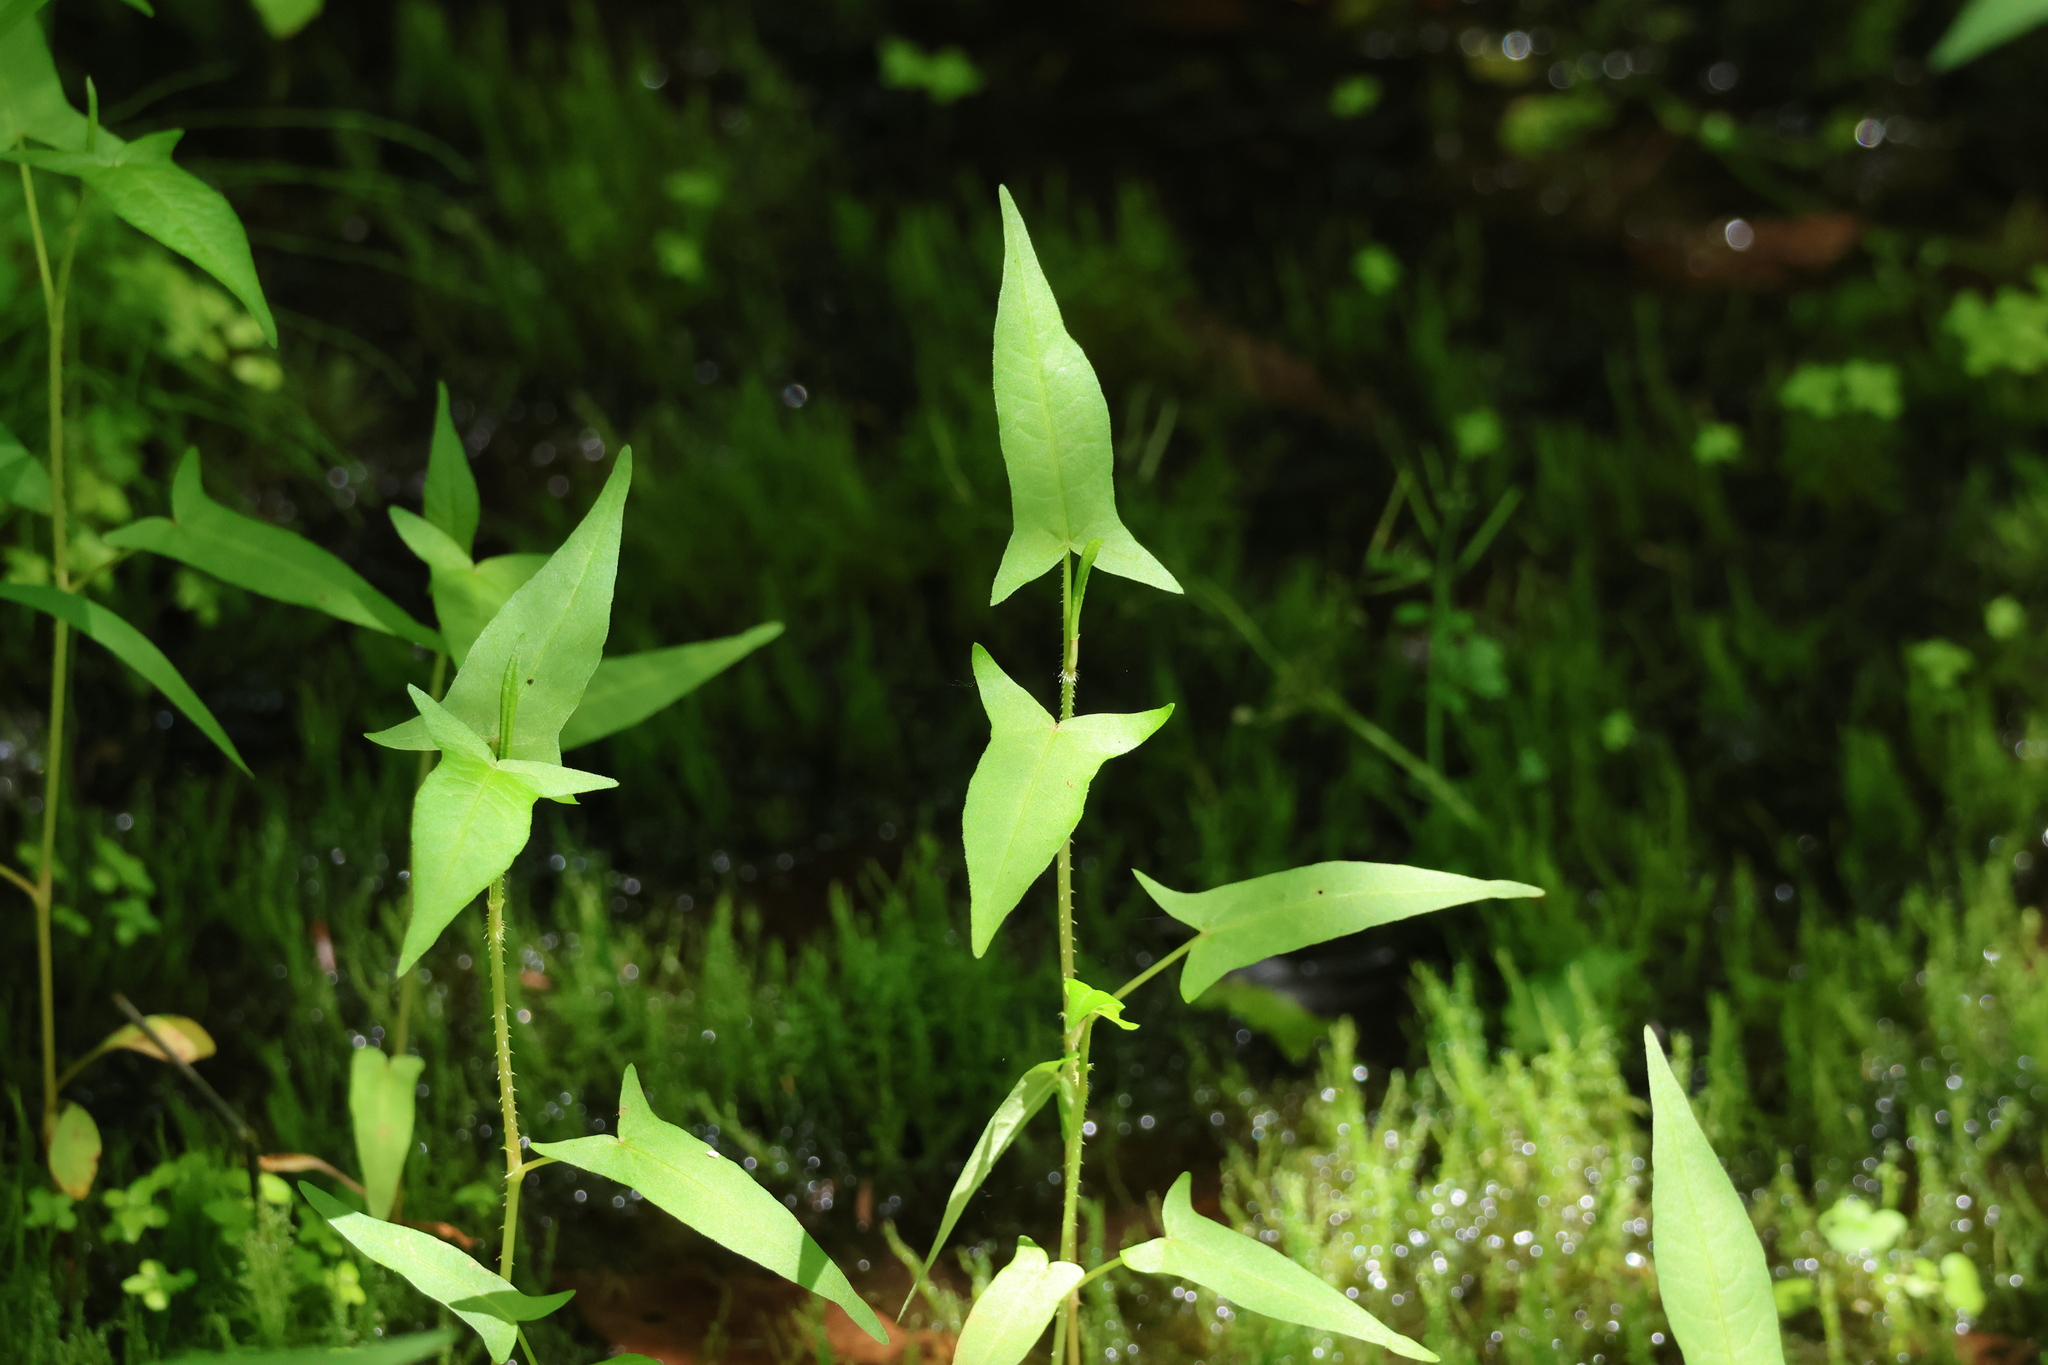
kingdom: Plantae
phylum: Tracheophyta
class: Magnoliopsida
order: Caryophyllales
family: Polygonaceae
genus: Persicaria
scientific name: Persicaria arifolia
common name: Halberd-leaved tear-thumb
